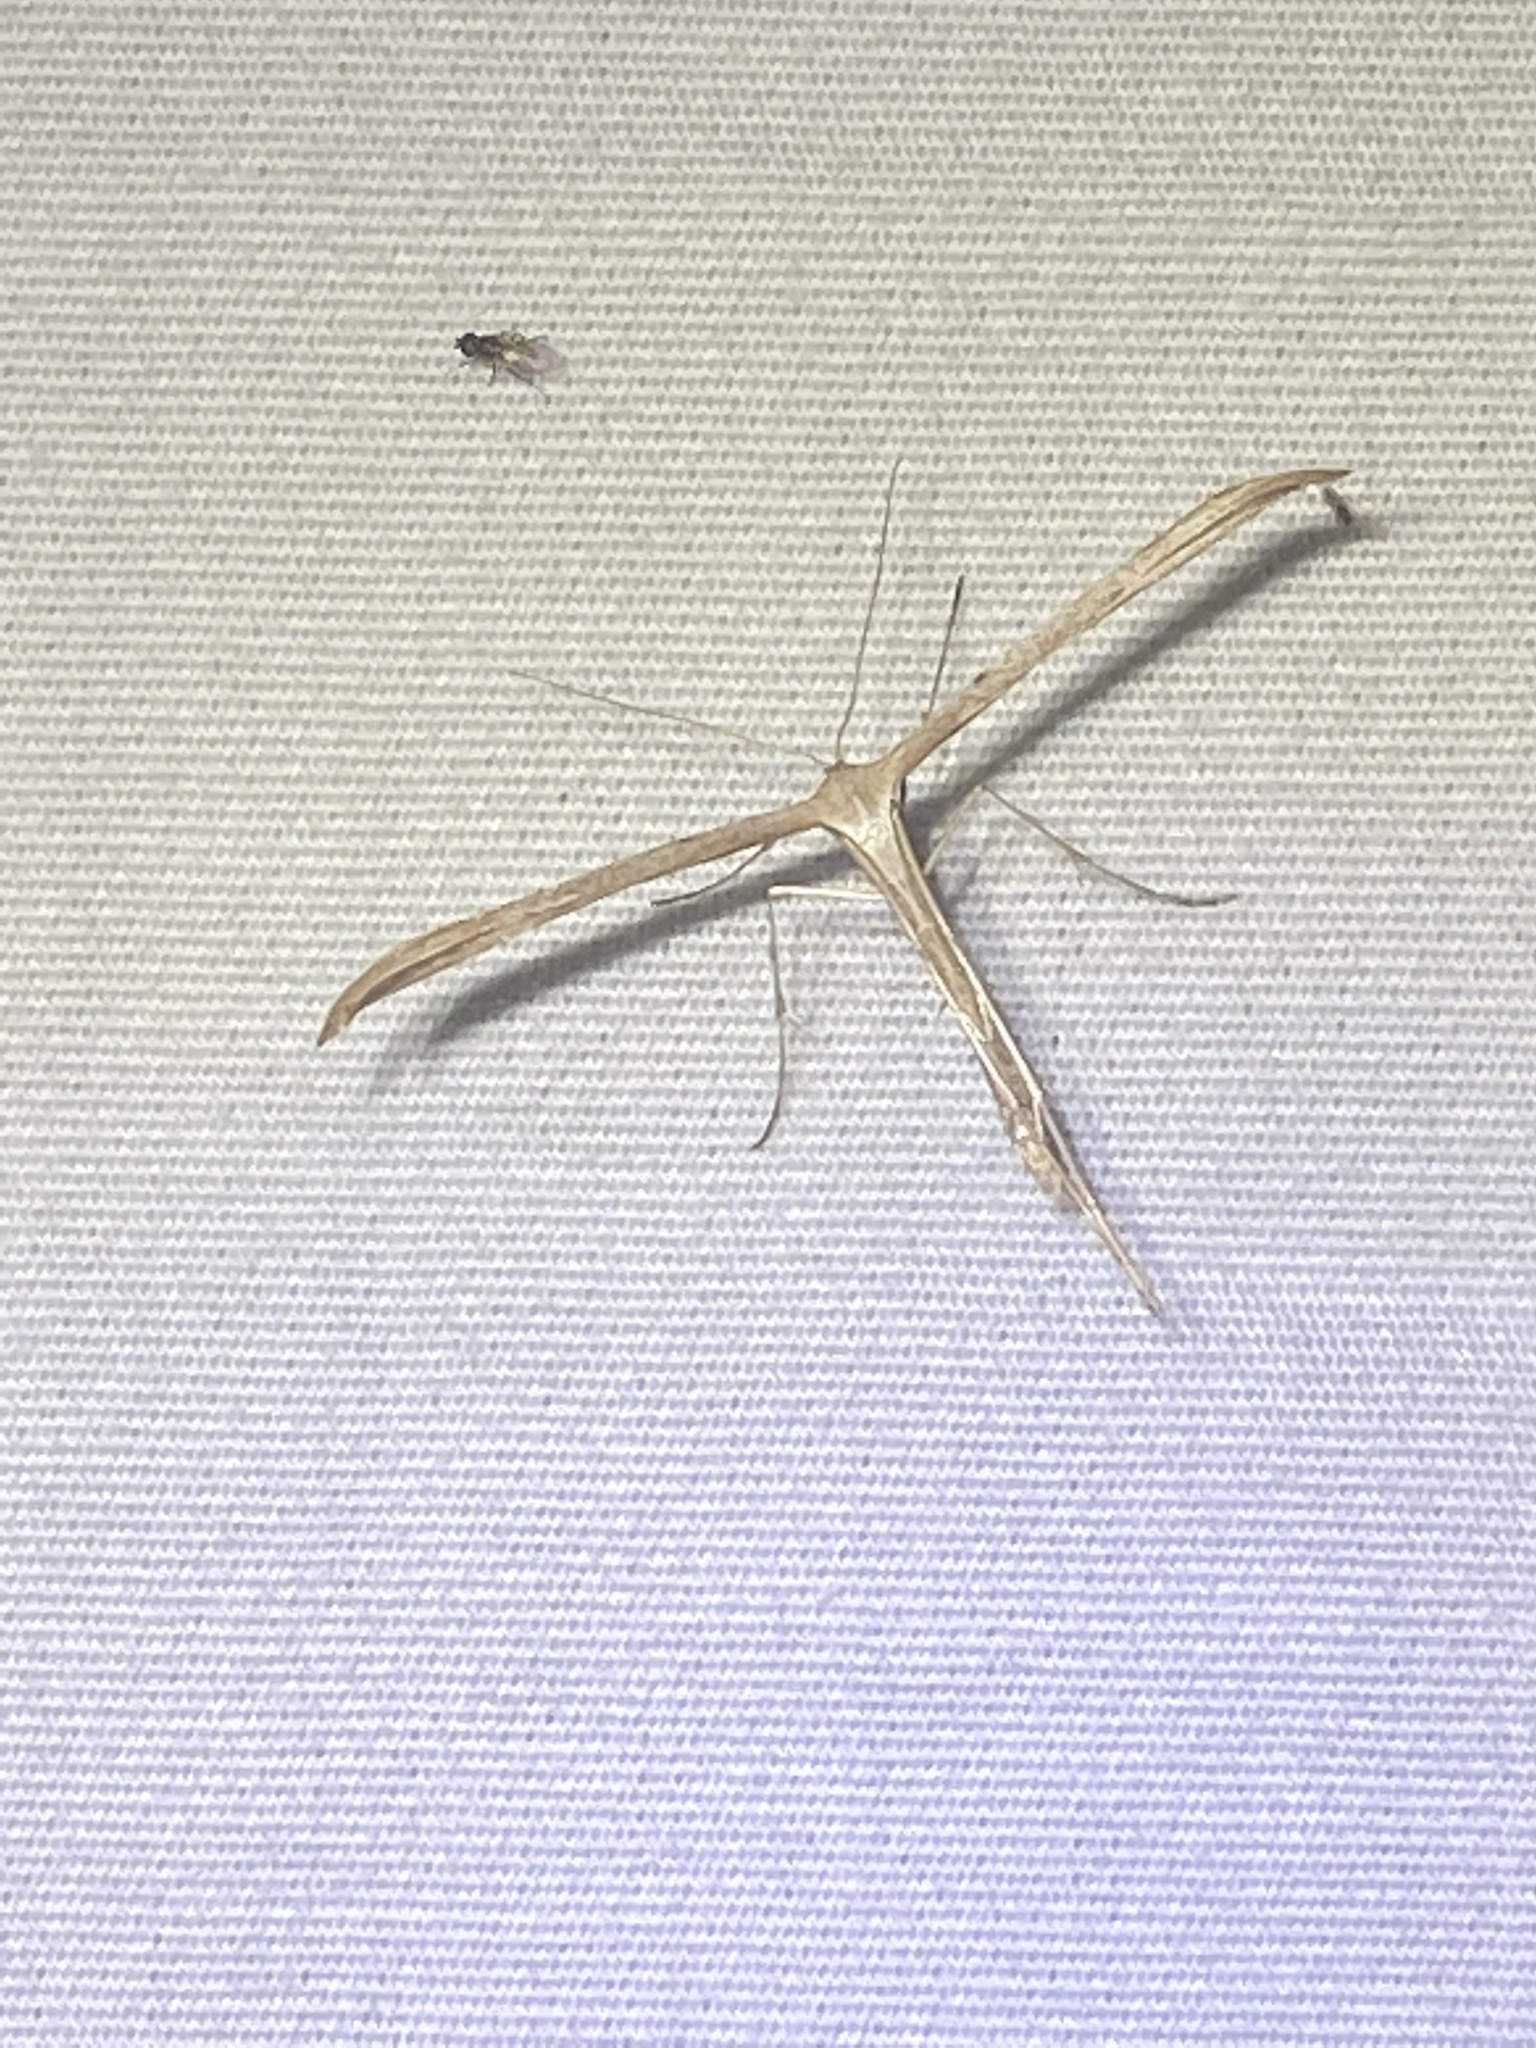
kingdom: Animalia
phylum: Arthropoda
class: Insecta
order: Lepidoptera
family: Pterophoridae
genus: Emmelina
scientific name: Emmelina monodactyla
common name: Common plume
